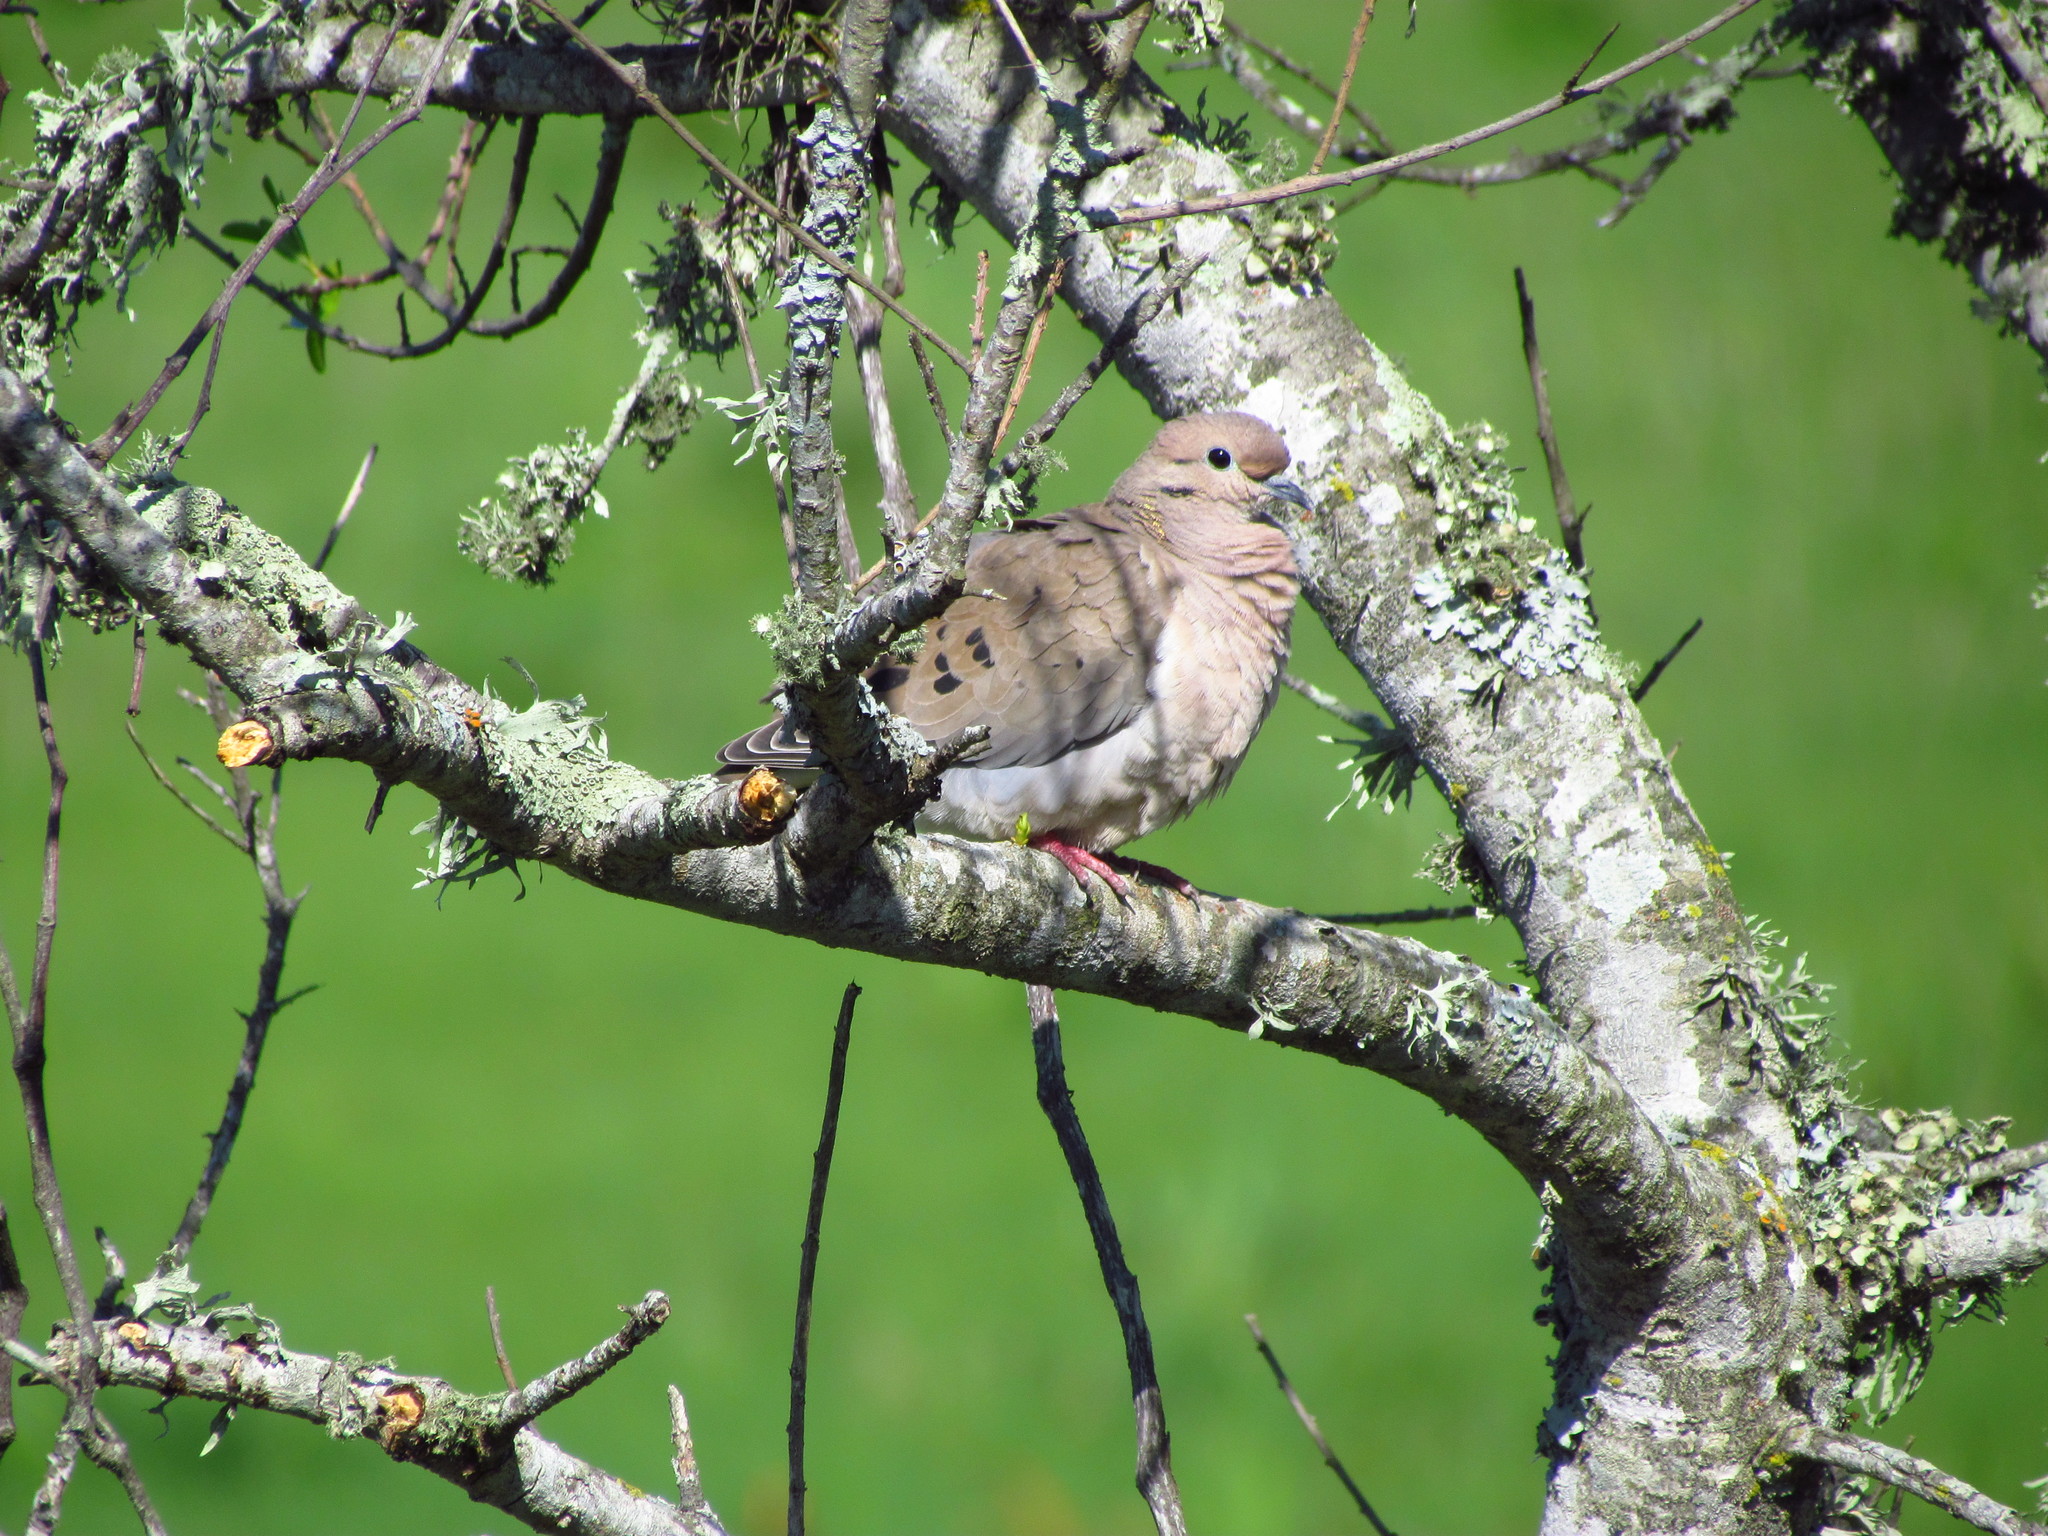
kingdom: Animalia
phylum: Chordata
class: Aves
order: Columbiformes
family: Columbidae
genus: Zenaida
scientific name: Zenaida auriculata
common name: Eared dove
